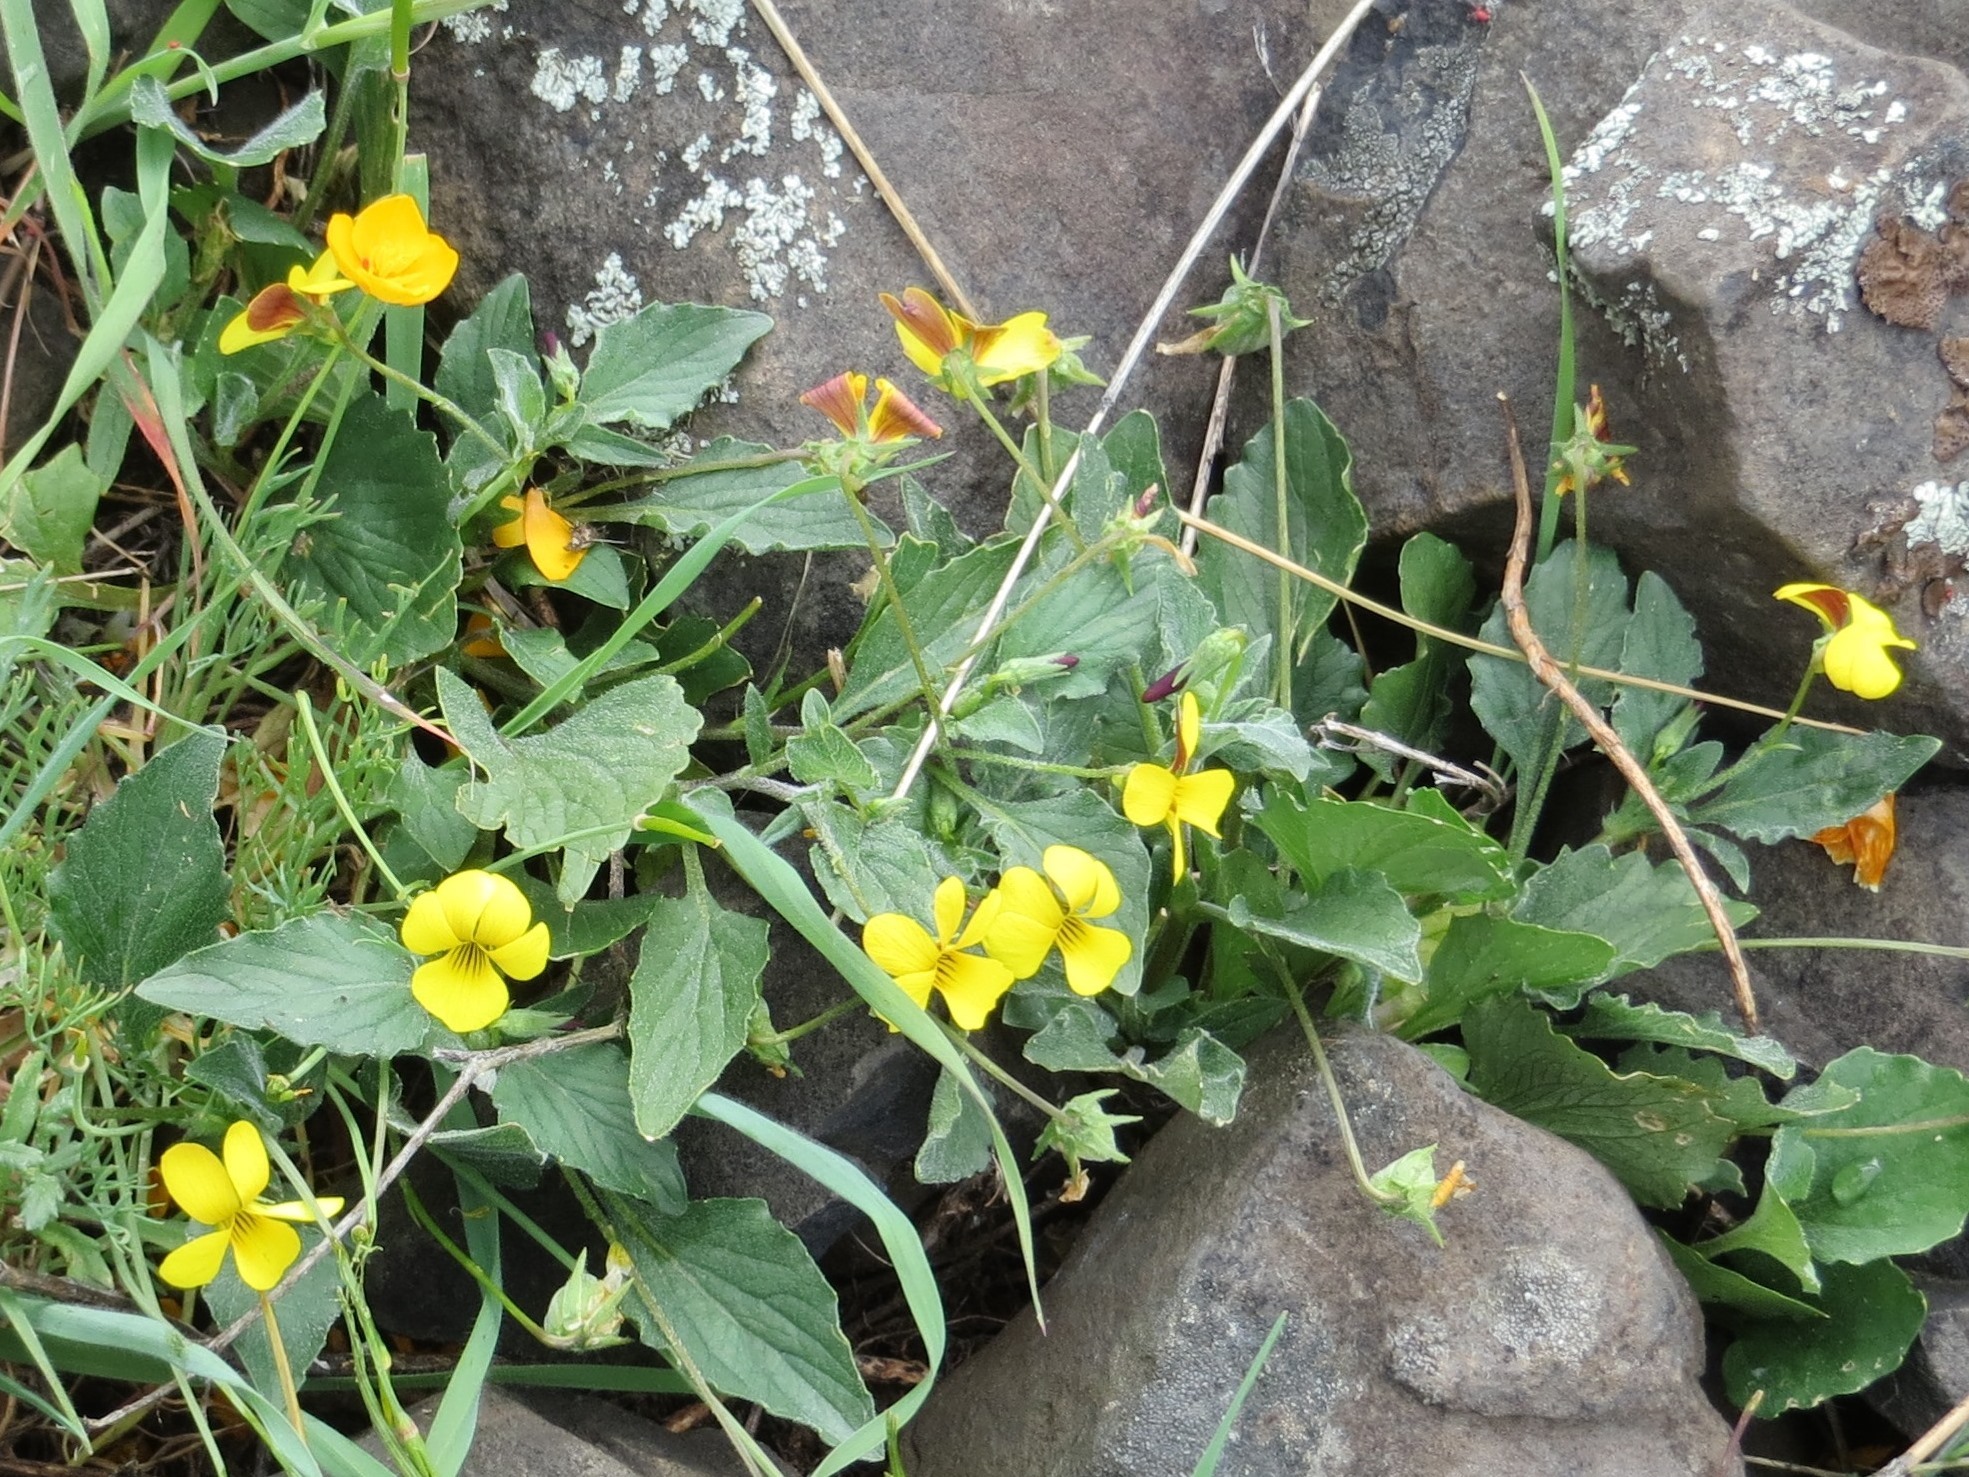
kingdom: Plantae
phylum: Tracheophyta
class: Magnoliopsida
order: Malpighiales
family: Violaceae
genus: Viola
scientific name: Viola quercetorum
